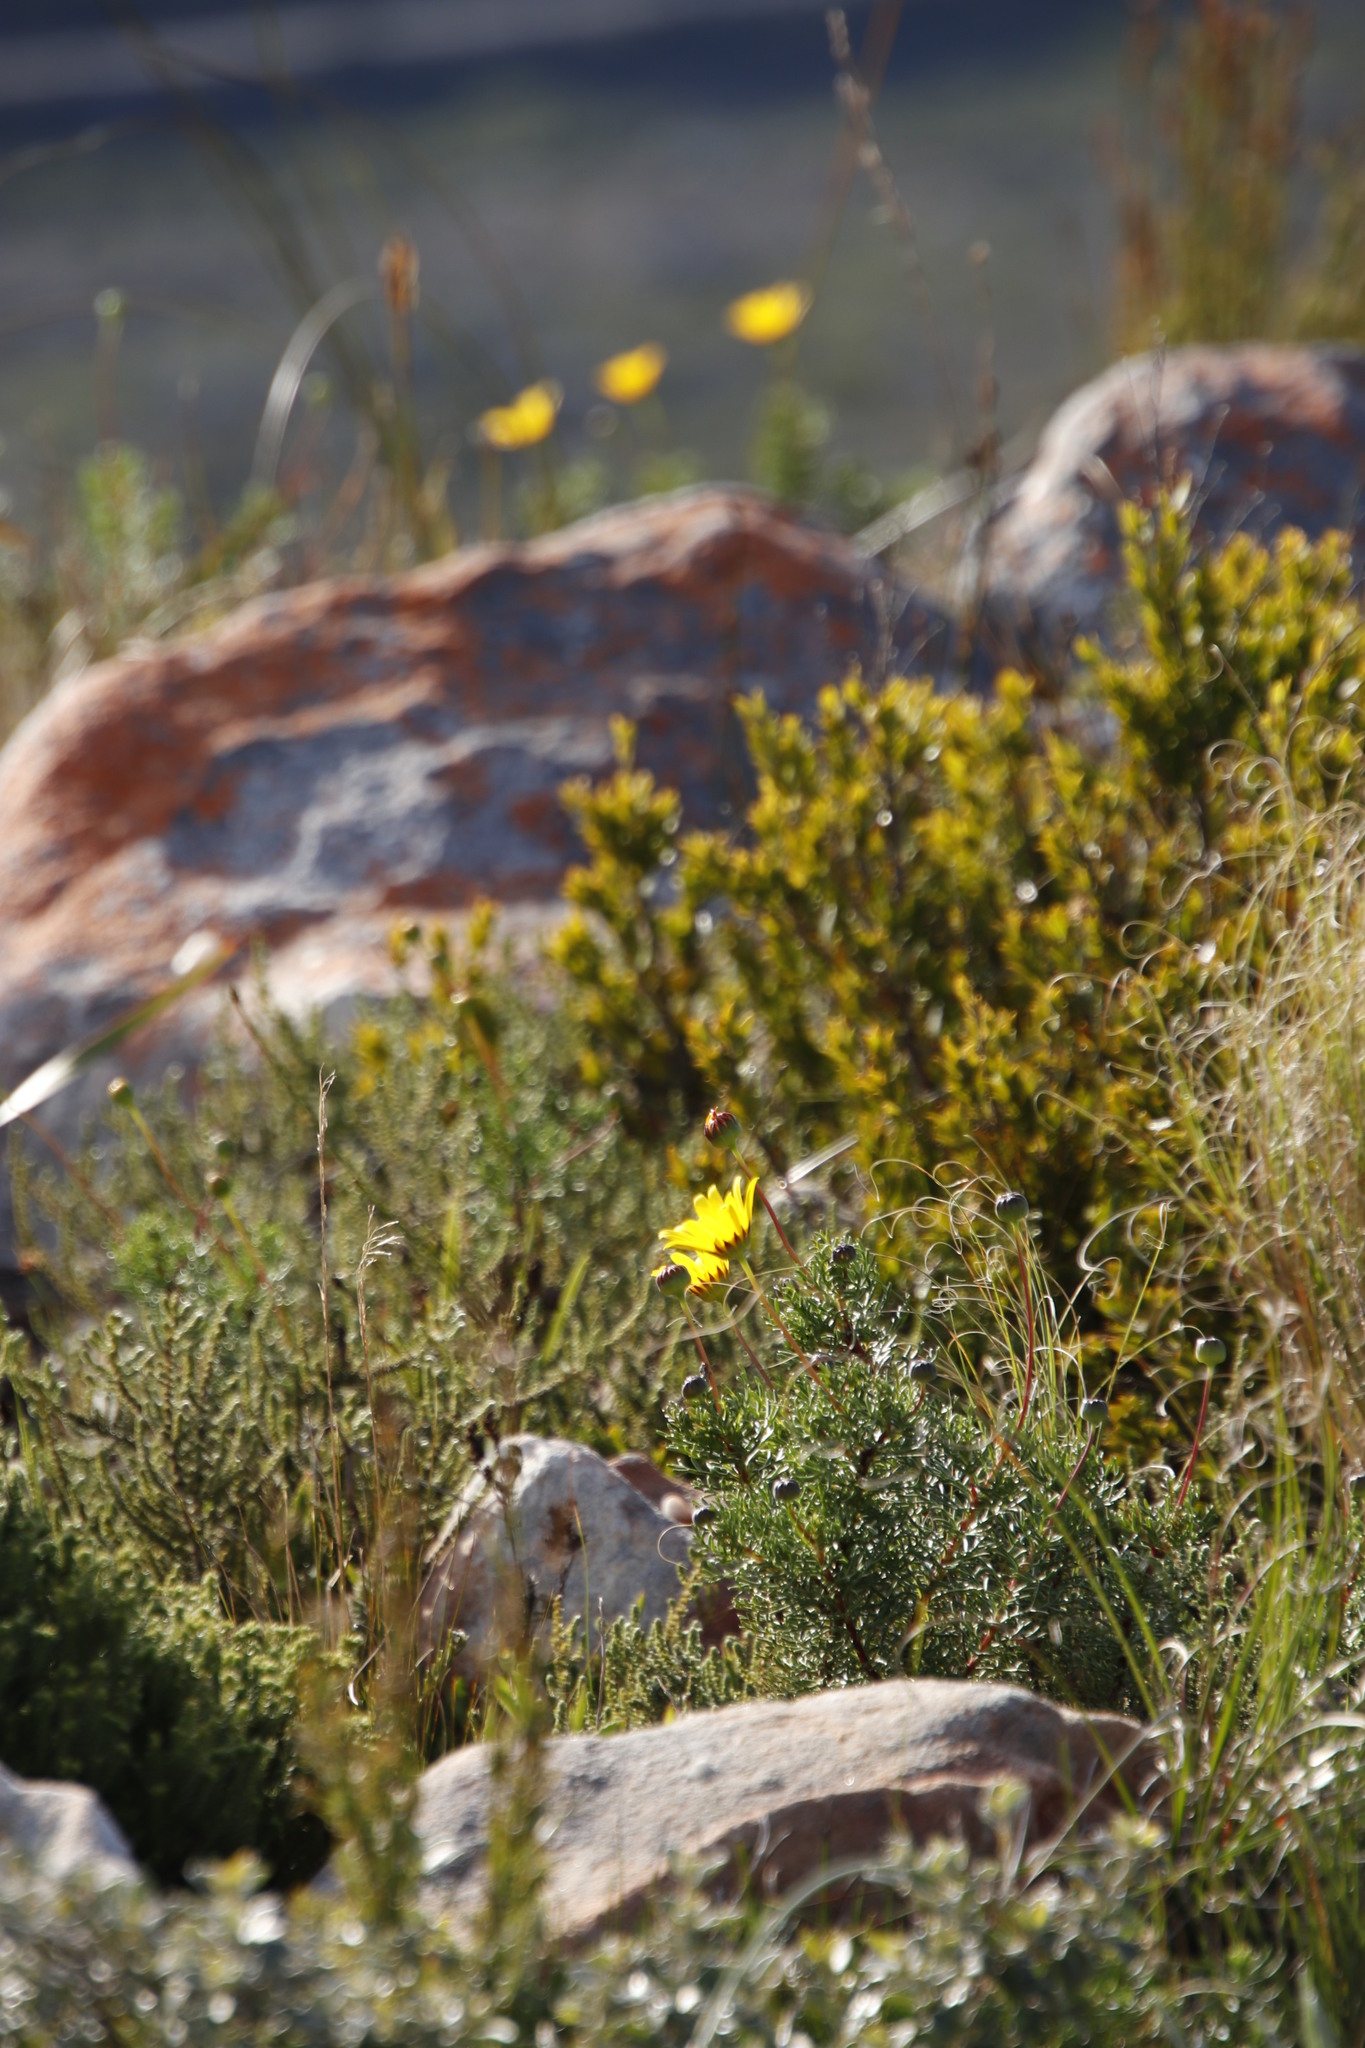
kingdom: Plantae
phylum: Tracheophyta
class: Magnoliopsida
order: Asterales
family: Asteraceae
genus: Euryops
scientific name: Euryops abrotanifolius
